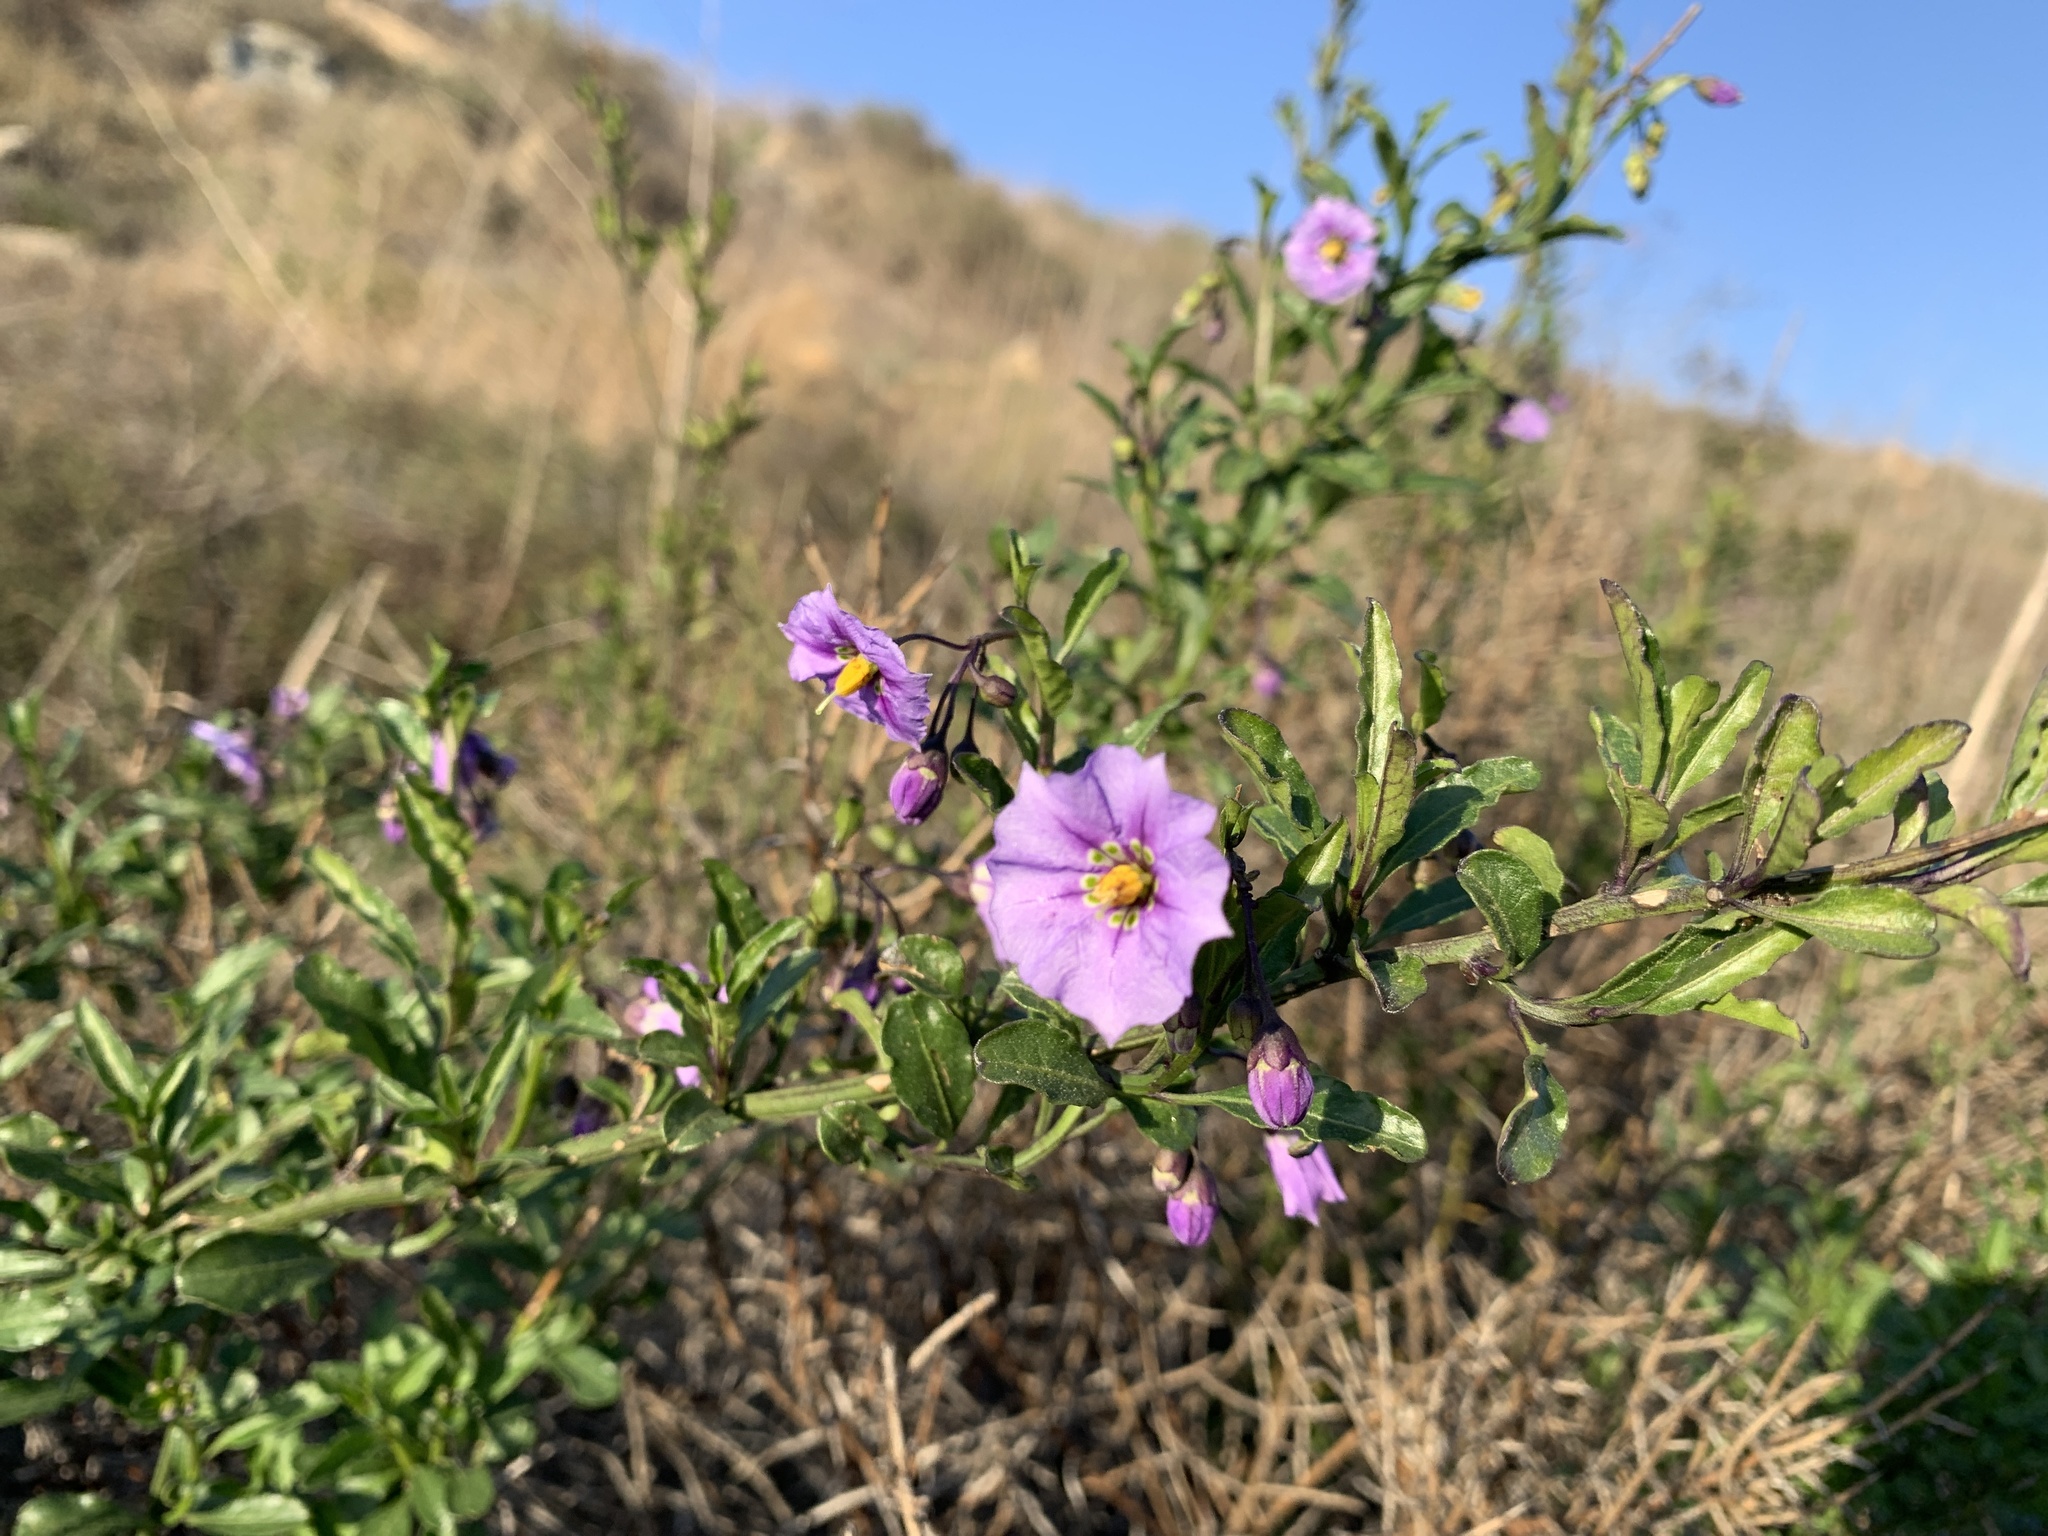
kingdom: Plantae
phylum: Tracheophyta
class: Magnoliopsida
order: Solanales
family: Solanaceae
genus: Solanum
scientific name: Solanum umbelliferum
